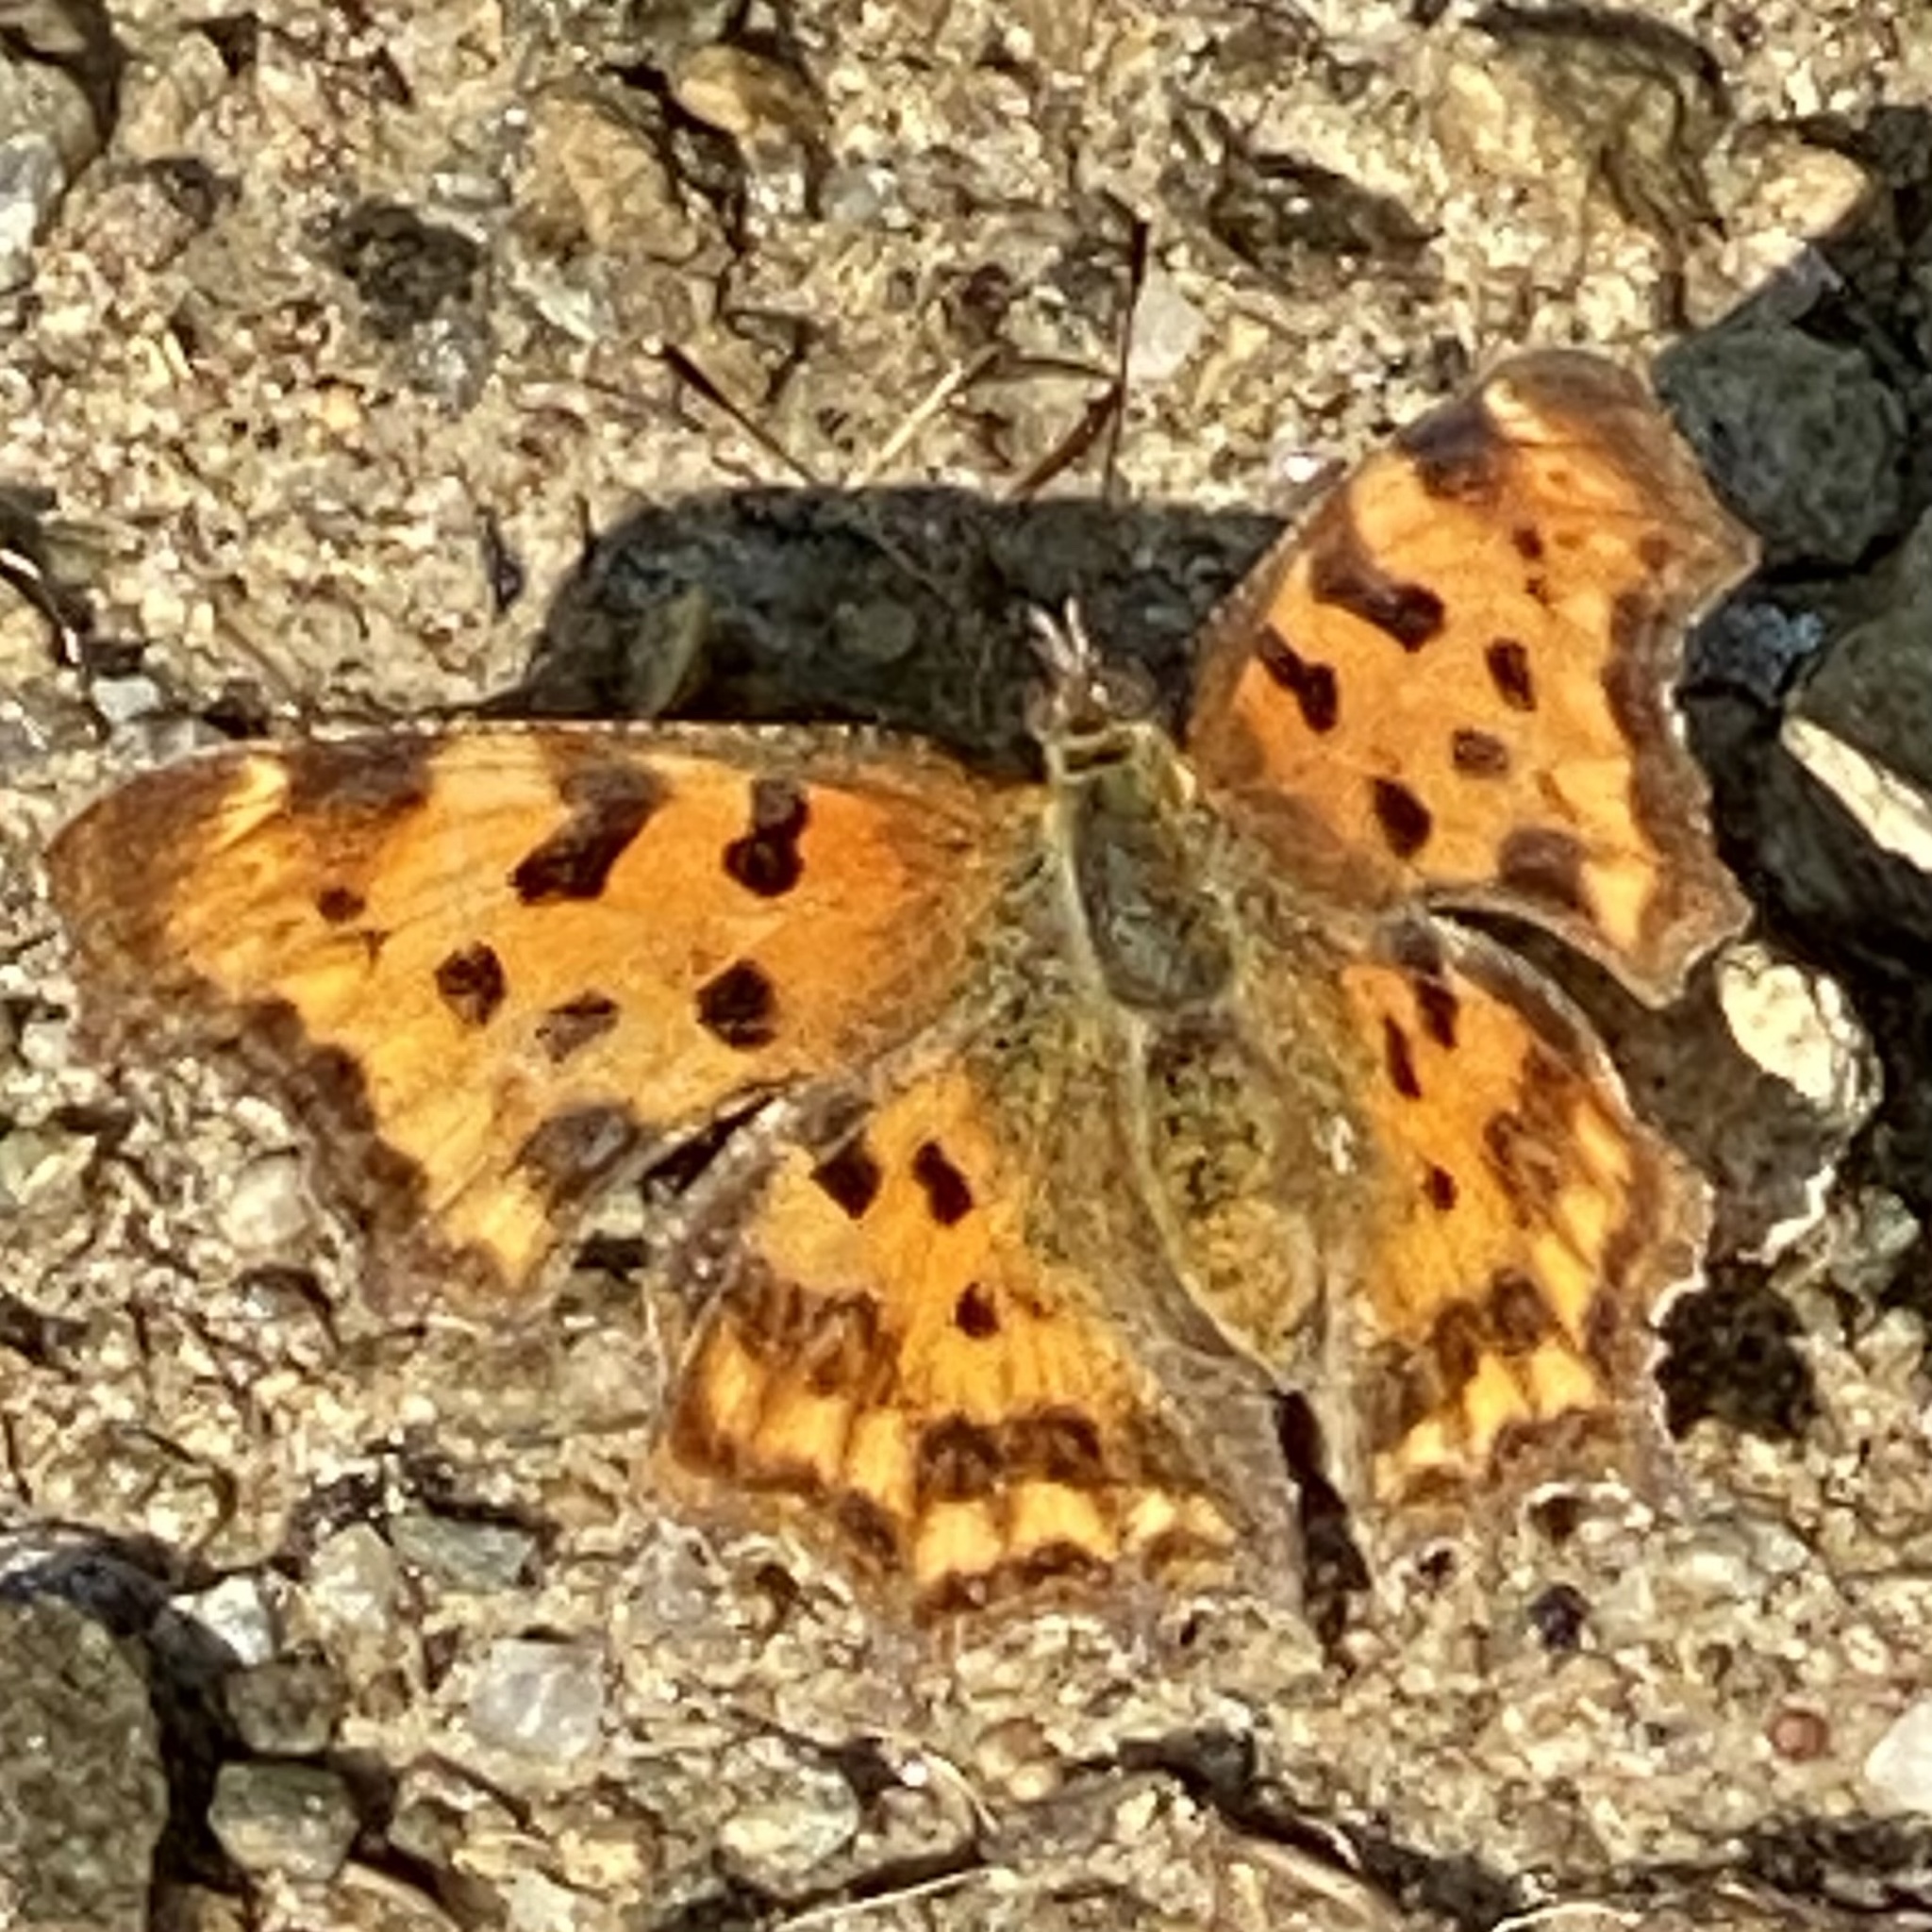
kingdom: Animalia
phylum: Arthropoda
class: Insecta
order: Lepidoptera
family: Nymphalidae
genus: Polygonia
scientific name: Polygonia c-album
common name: Comma
